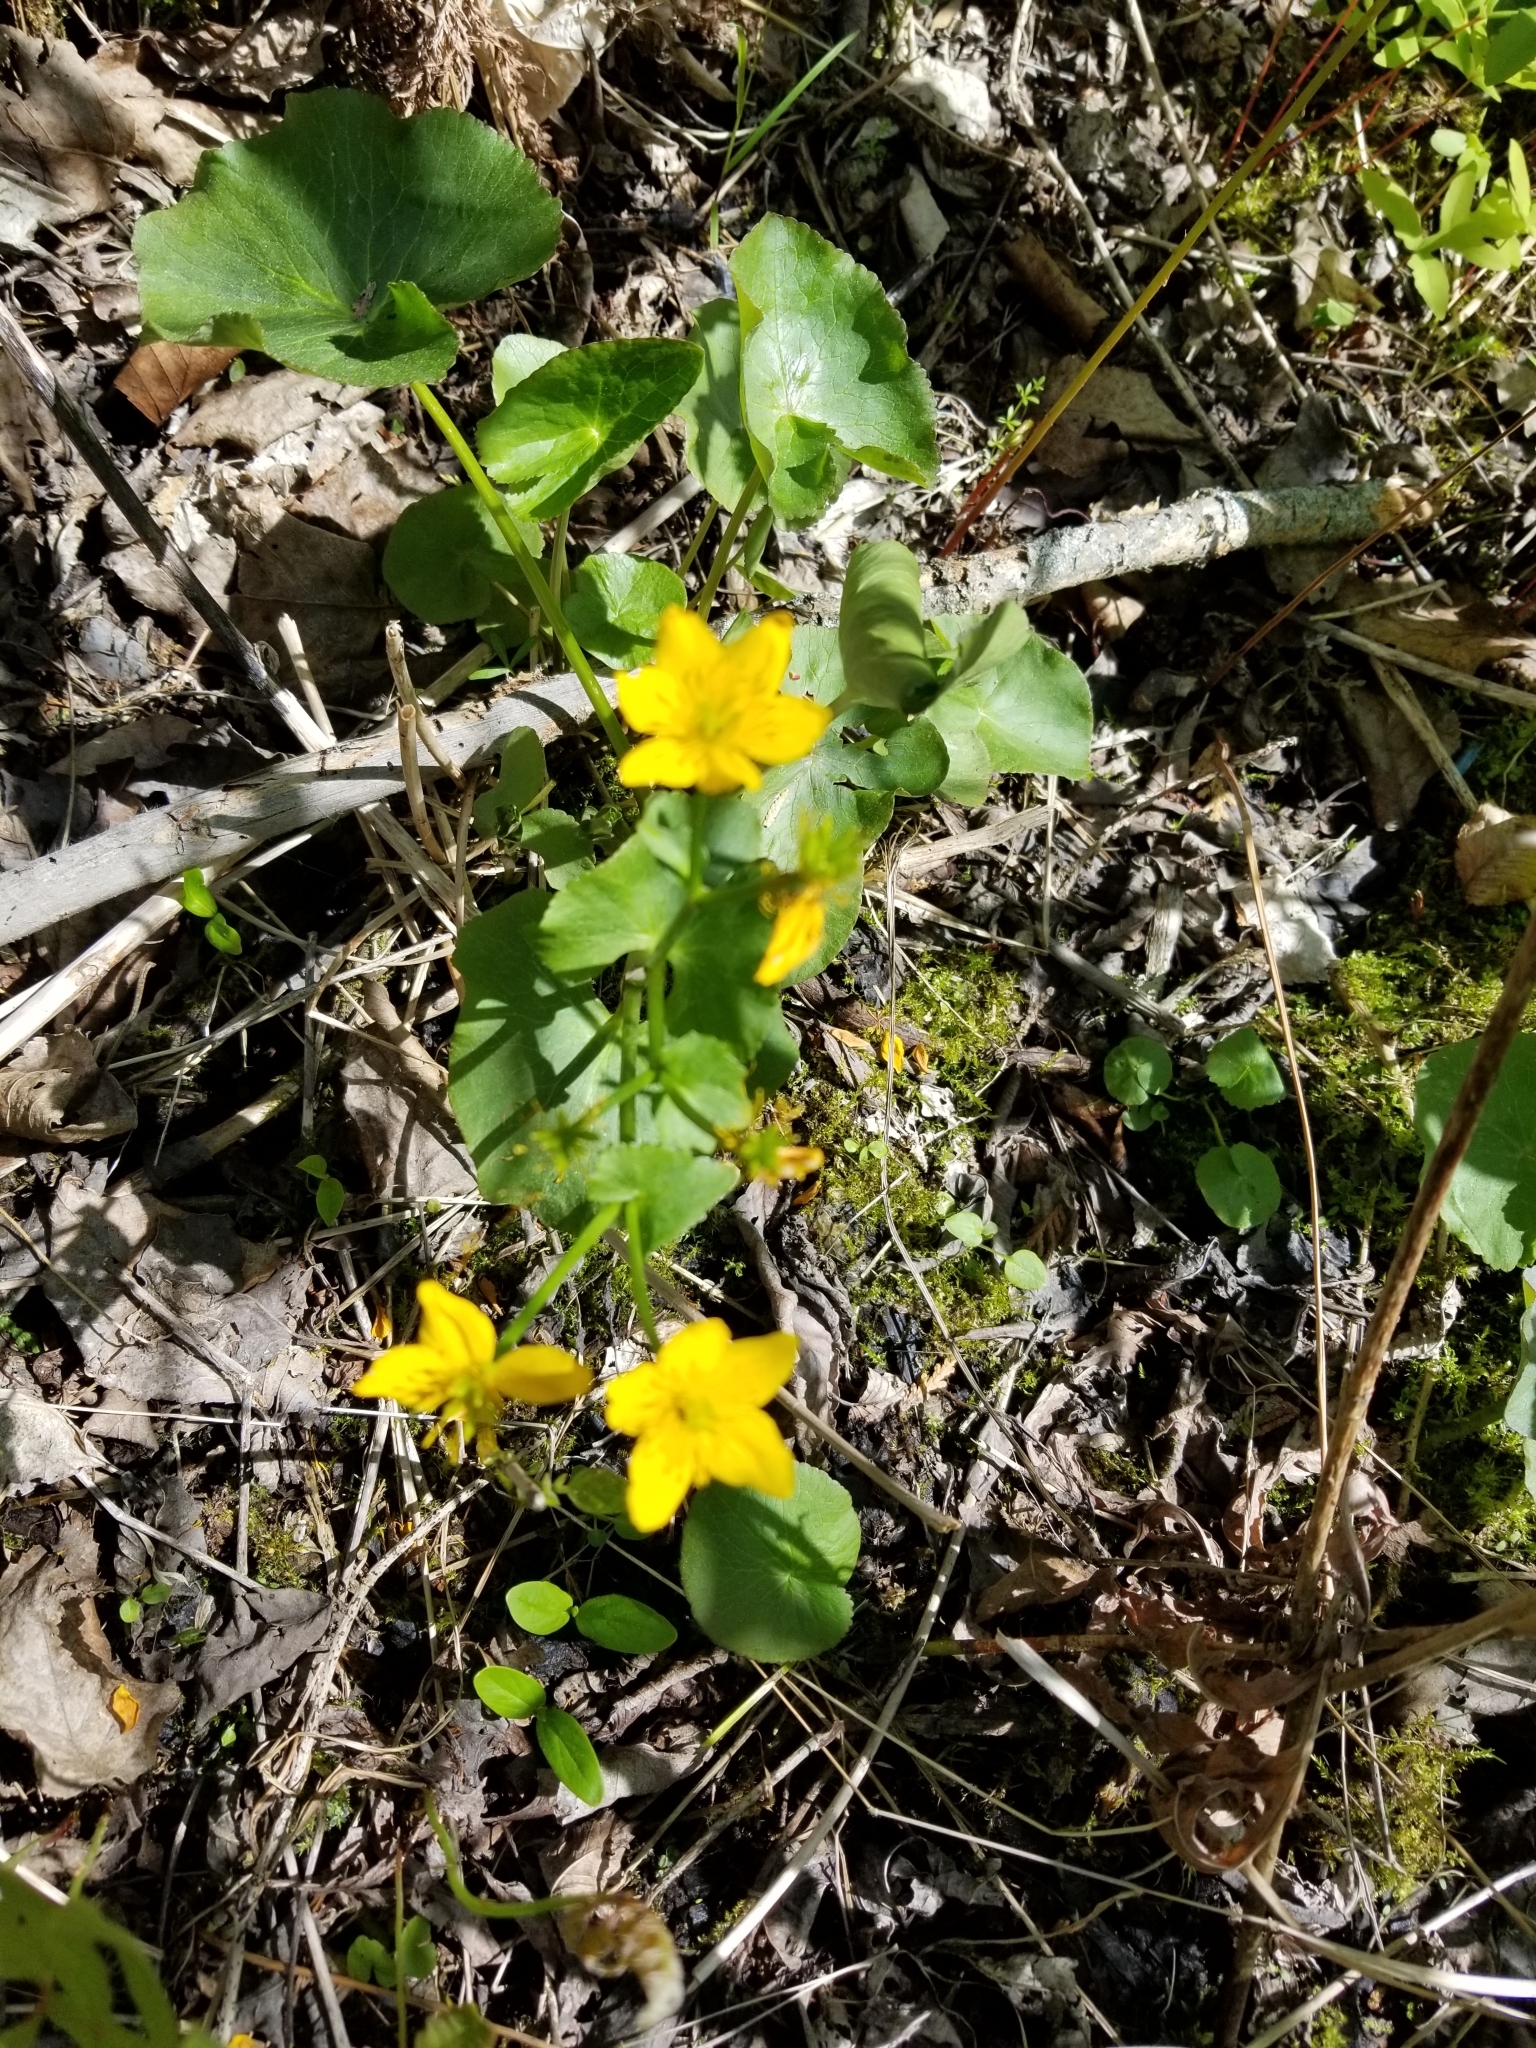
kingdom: Plantae
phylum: Tracheophyta
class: Magnoliopsida
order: Ranunculales
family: Ranunculaceae
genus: Caltha
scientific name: Caltha palustris
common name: Marsh marigold
